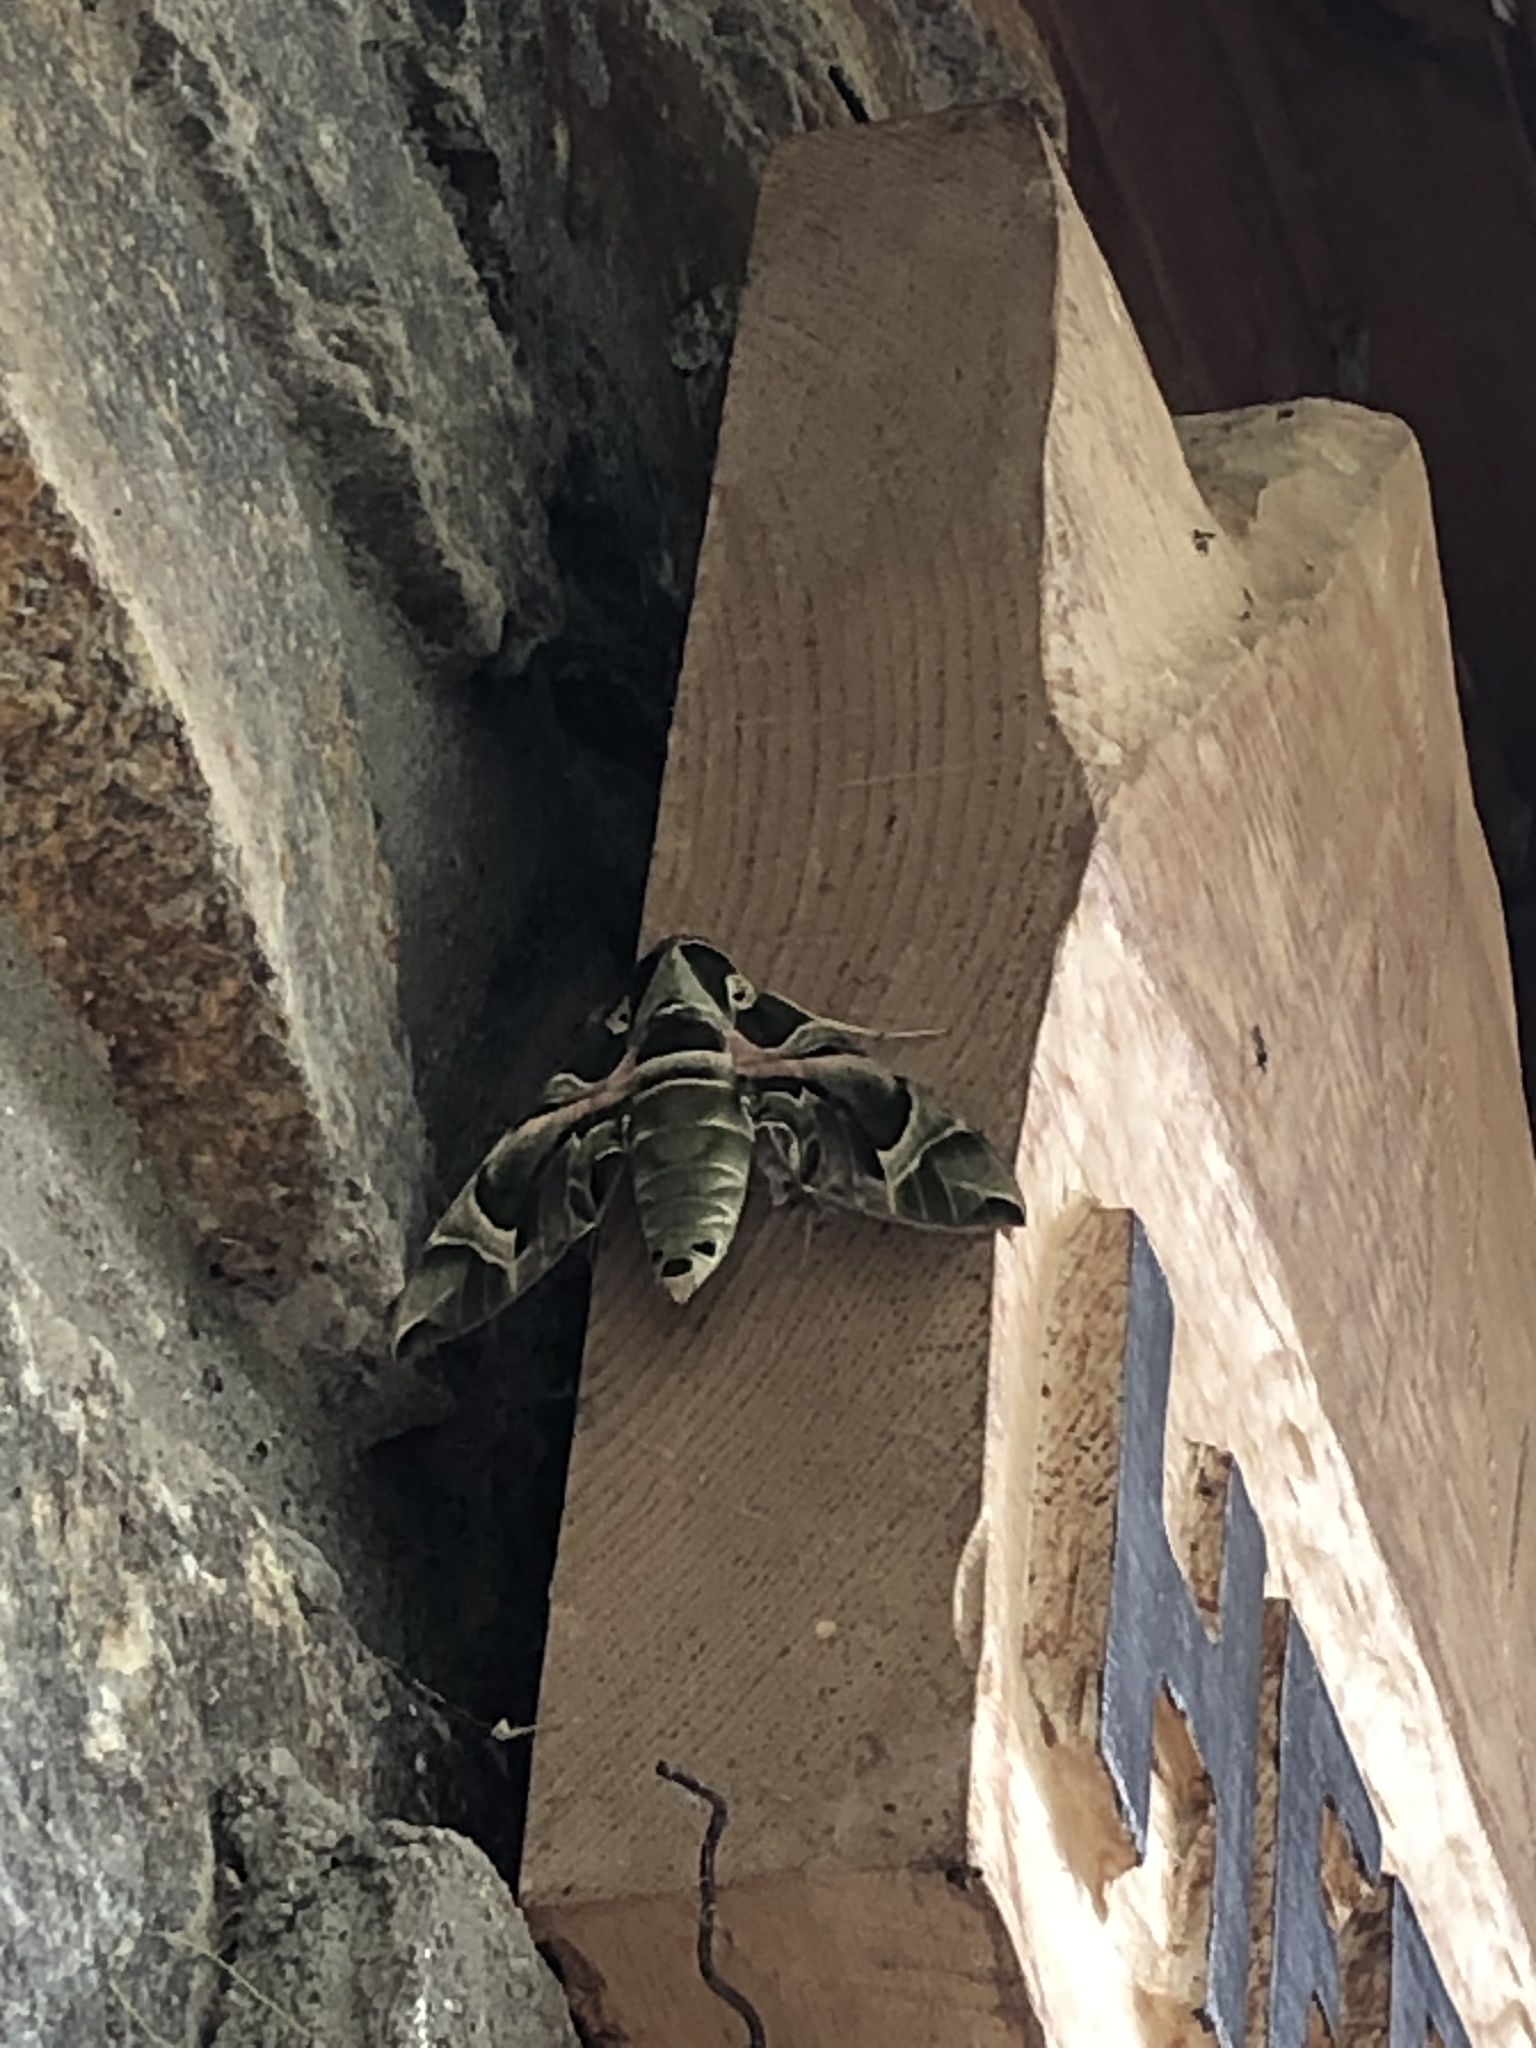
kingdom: Animalia
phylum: Arthropoda
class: Insecta
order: Lepidoptera
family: Sphingidae
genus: Daphnis
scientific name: Daphnis nerii
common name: Oleander hawk-moth
